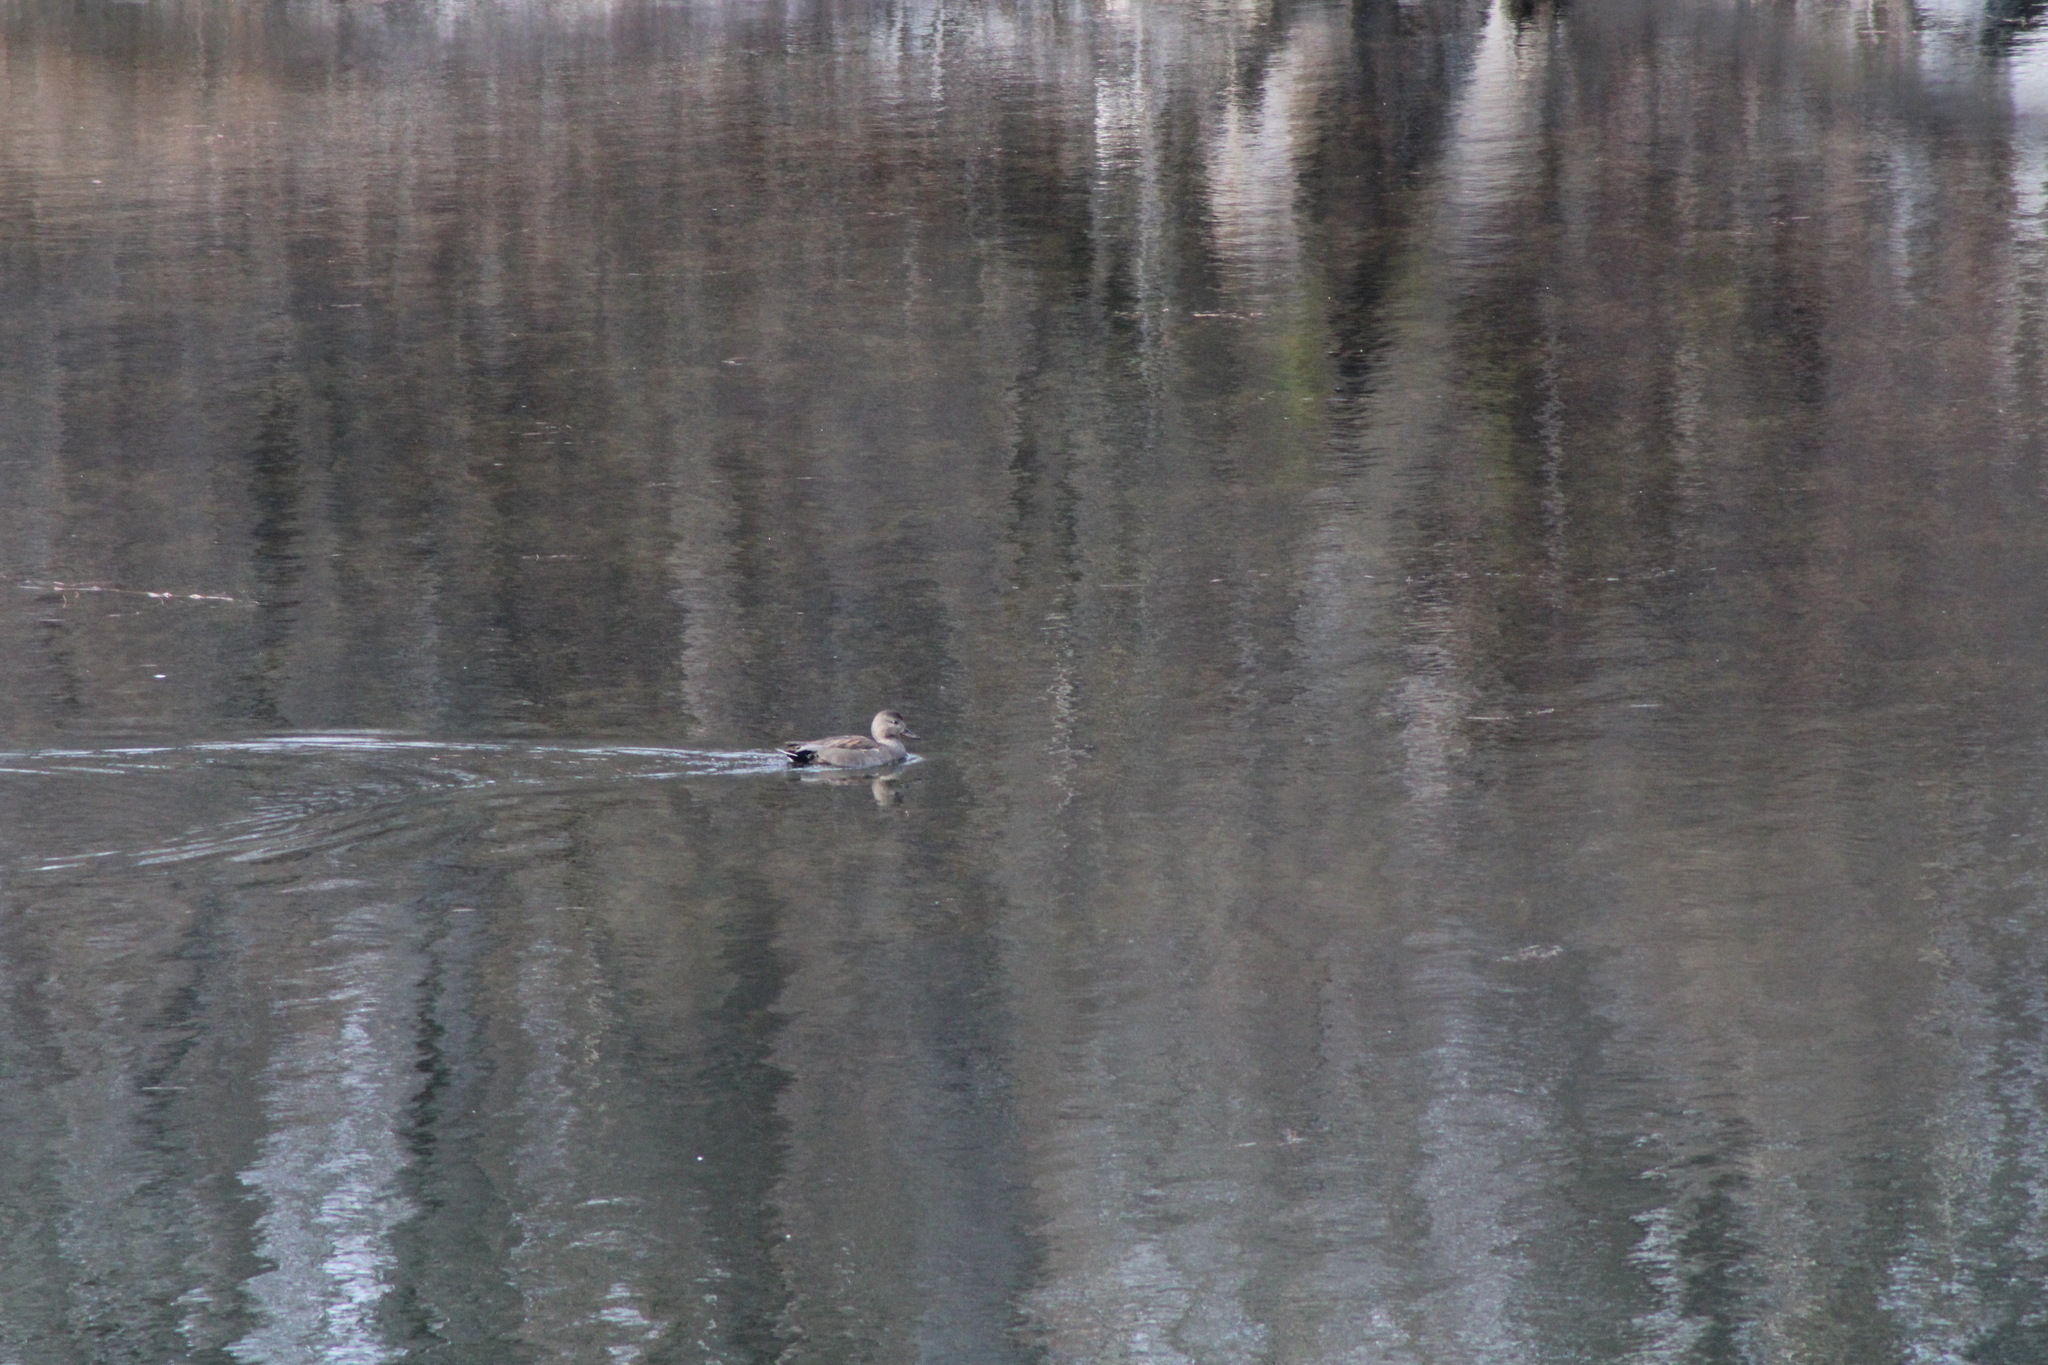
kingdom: Animalia
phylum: Chordata
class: Aves
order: Anseriformes
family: Anatidae
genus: Mareca
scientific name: Mareca strepera
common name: Gadwall
